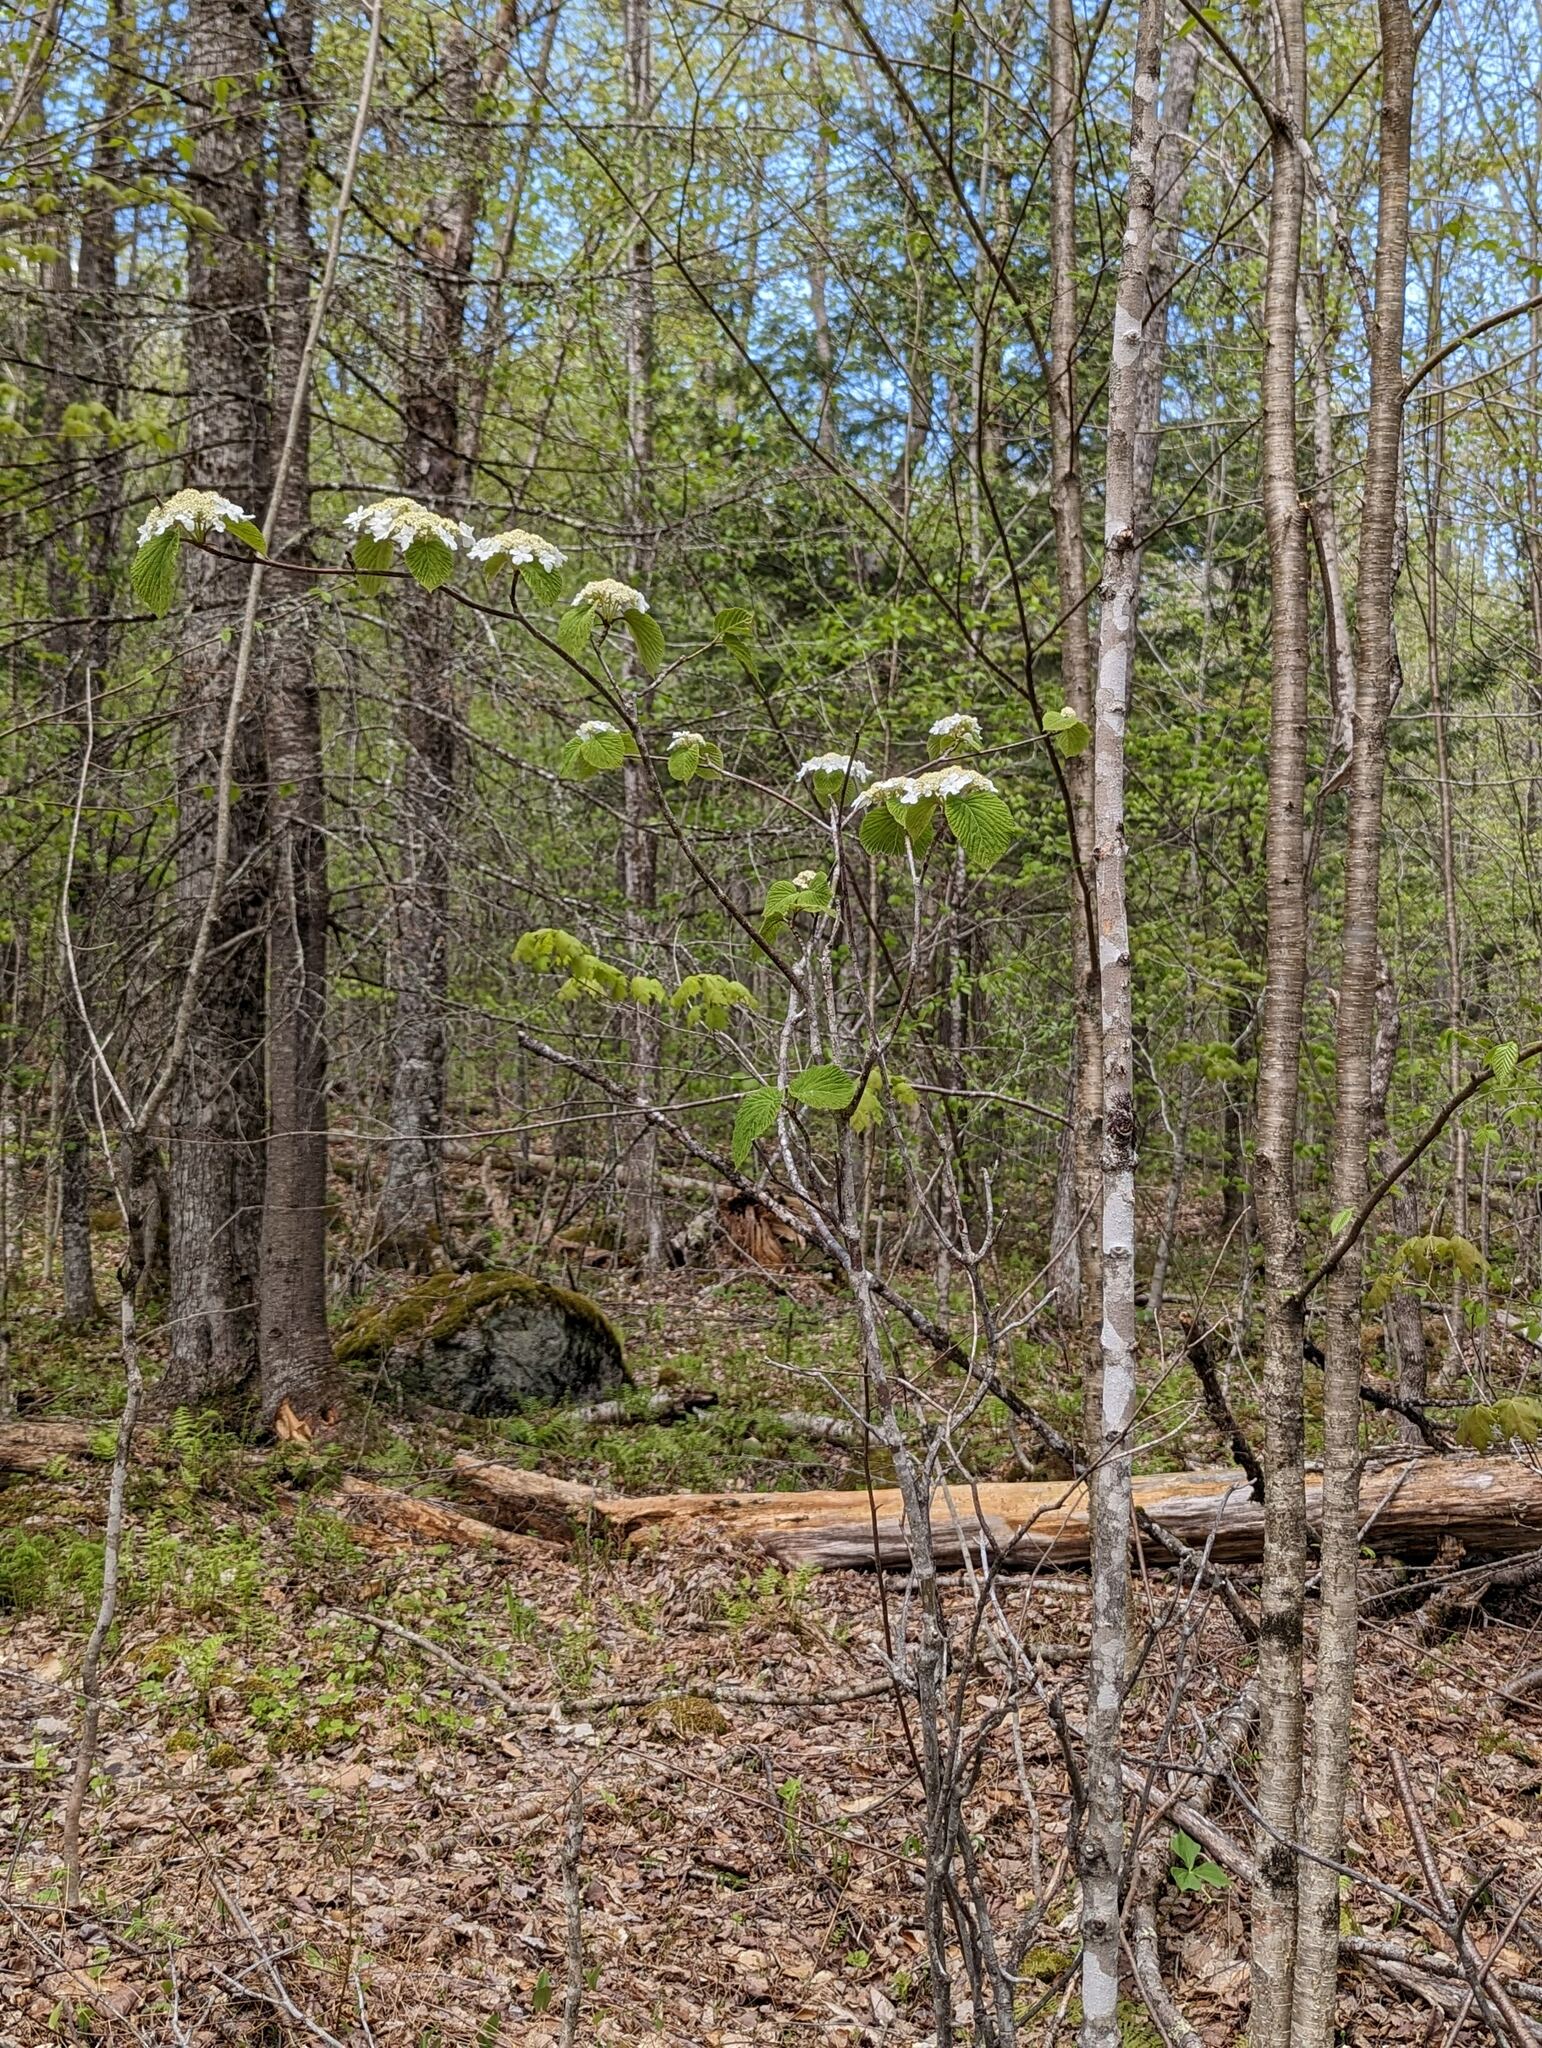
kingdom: Plantae
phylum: Tracheophyta
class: Magnoliopsida
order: Dipsacales
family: Viburnaceae
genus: Viburnum
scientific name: Viburnum lantanoides
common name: Hobblebush
